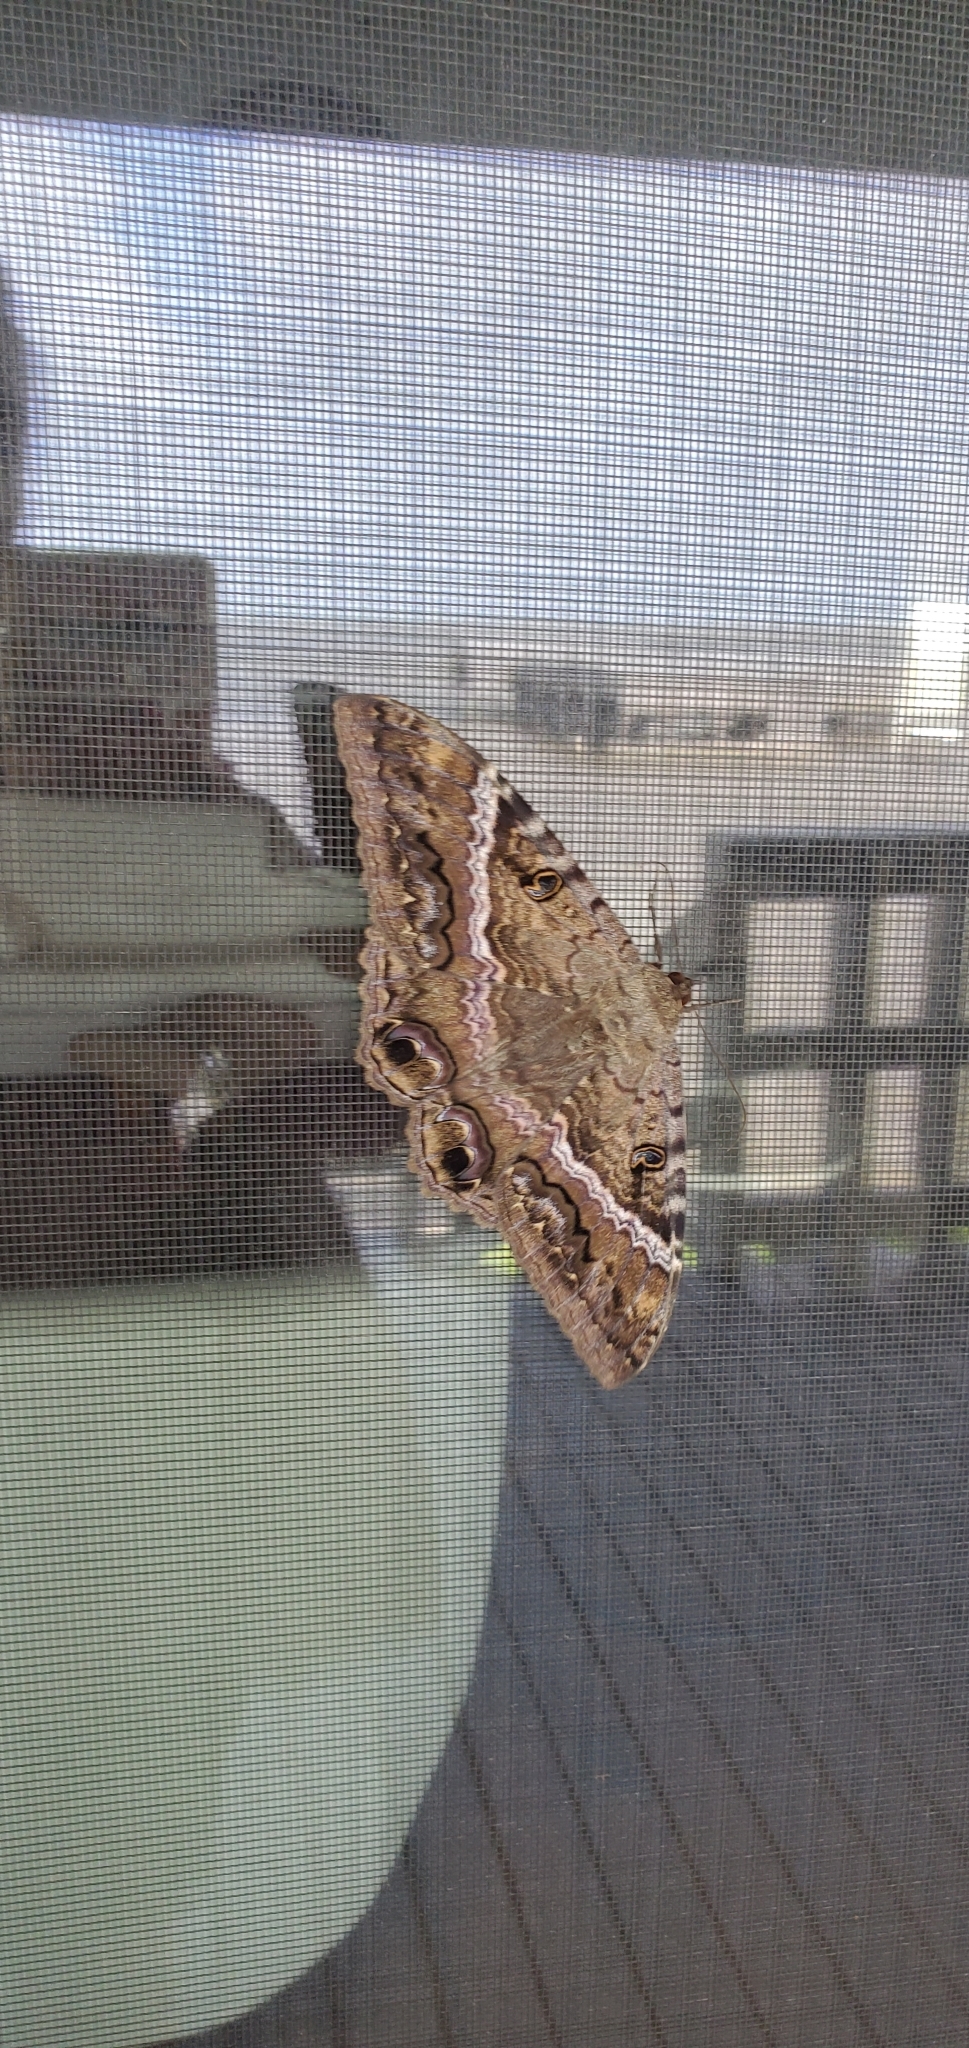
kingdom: Animalia
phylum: Arthropoda
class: Insecta
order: Lepidoptera
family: Erebidae
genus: Ascalapha
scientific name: Ascalapha odorata
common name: Black witch
